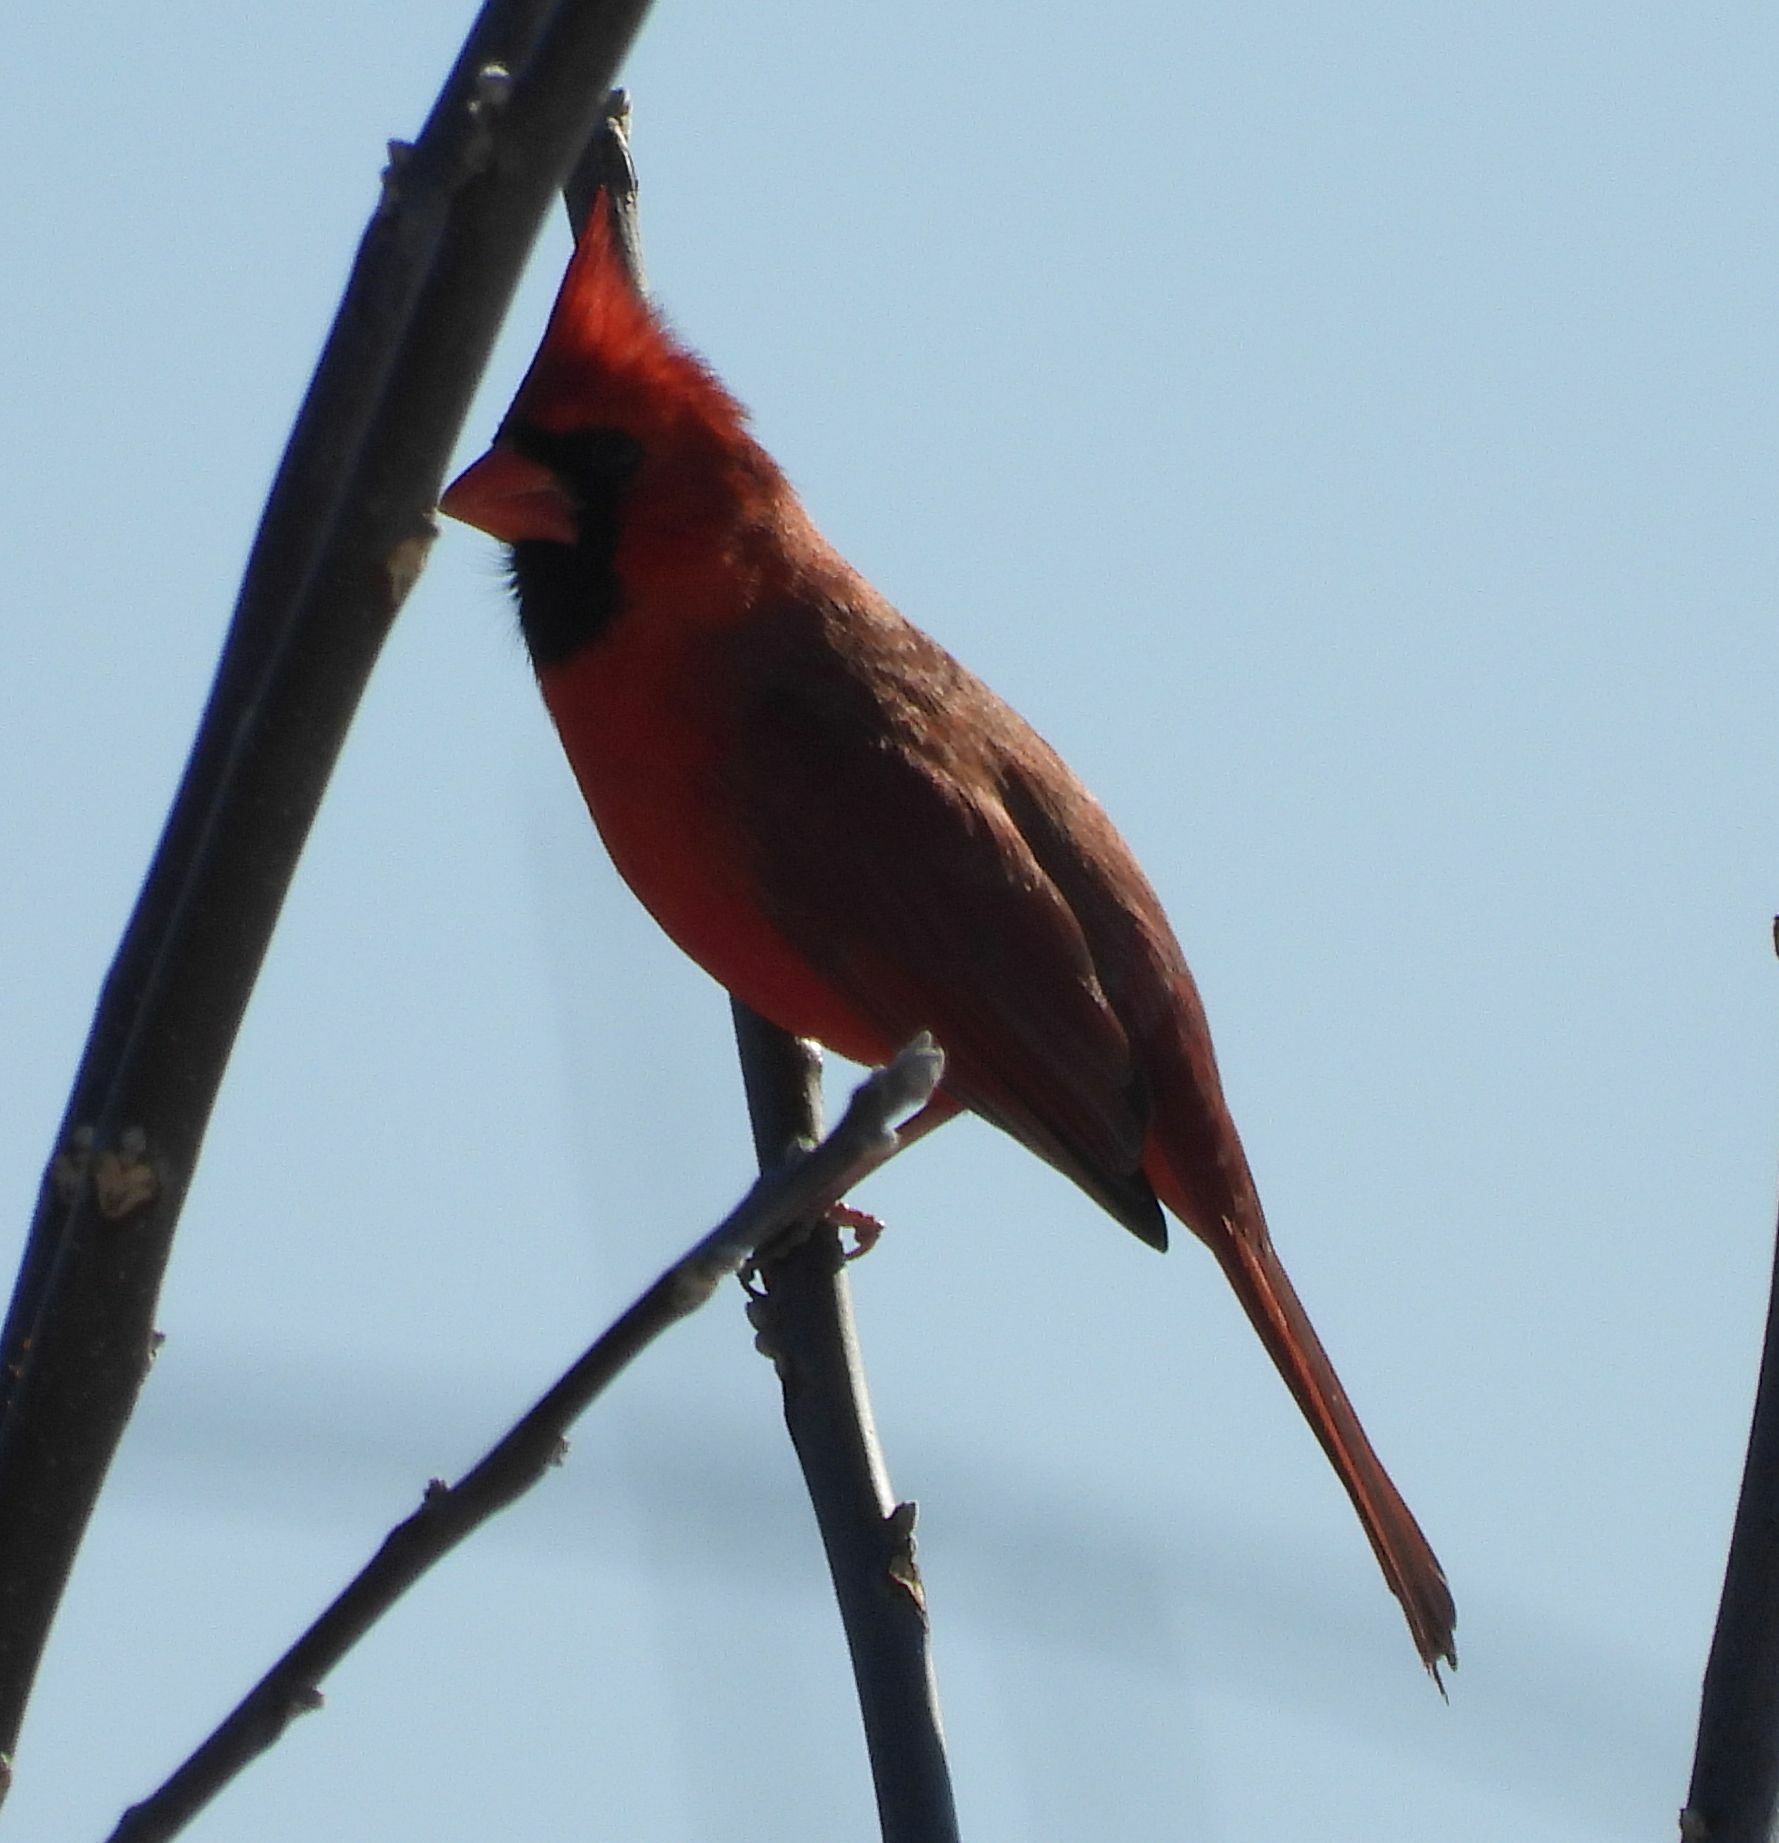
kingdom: Animalia
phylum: Chordata
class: Aves
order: Passeriformes
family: Cardinalidae
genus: Cardinalis
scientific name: Cardinalis cardinalis
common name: Northern cardinal
